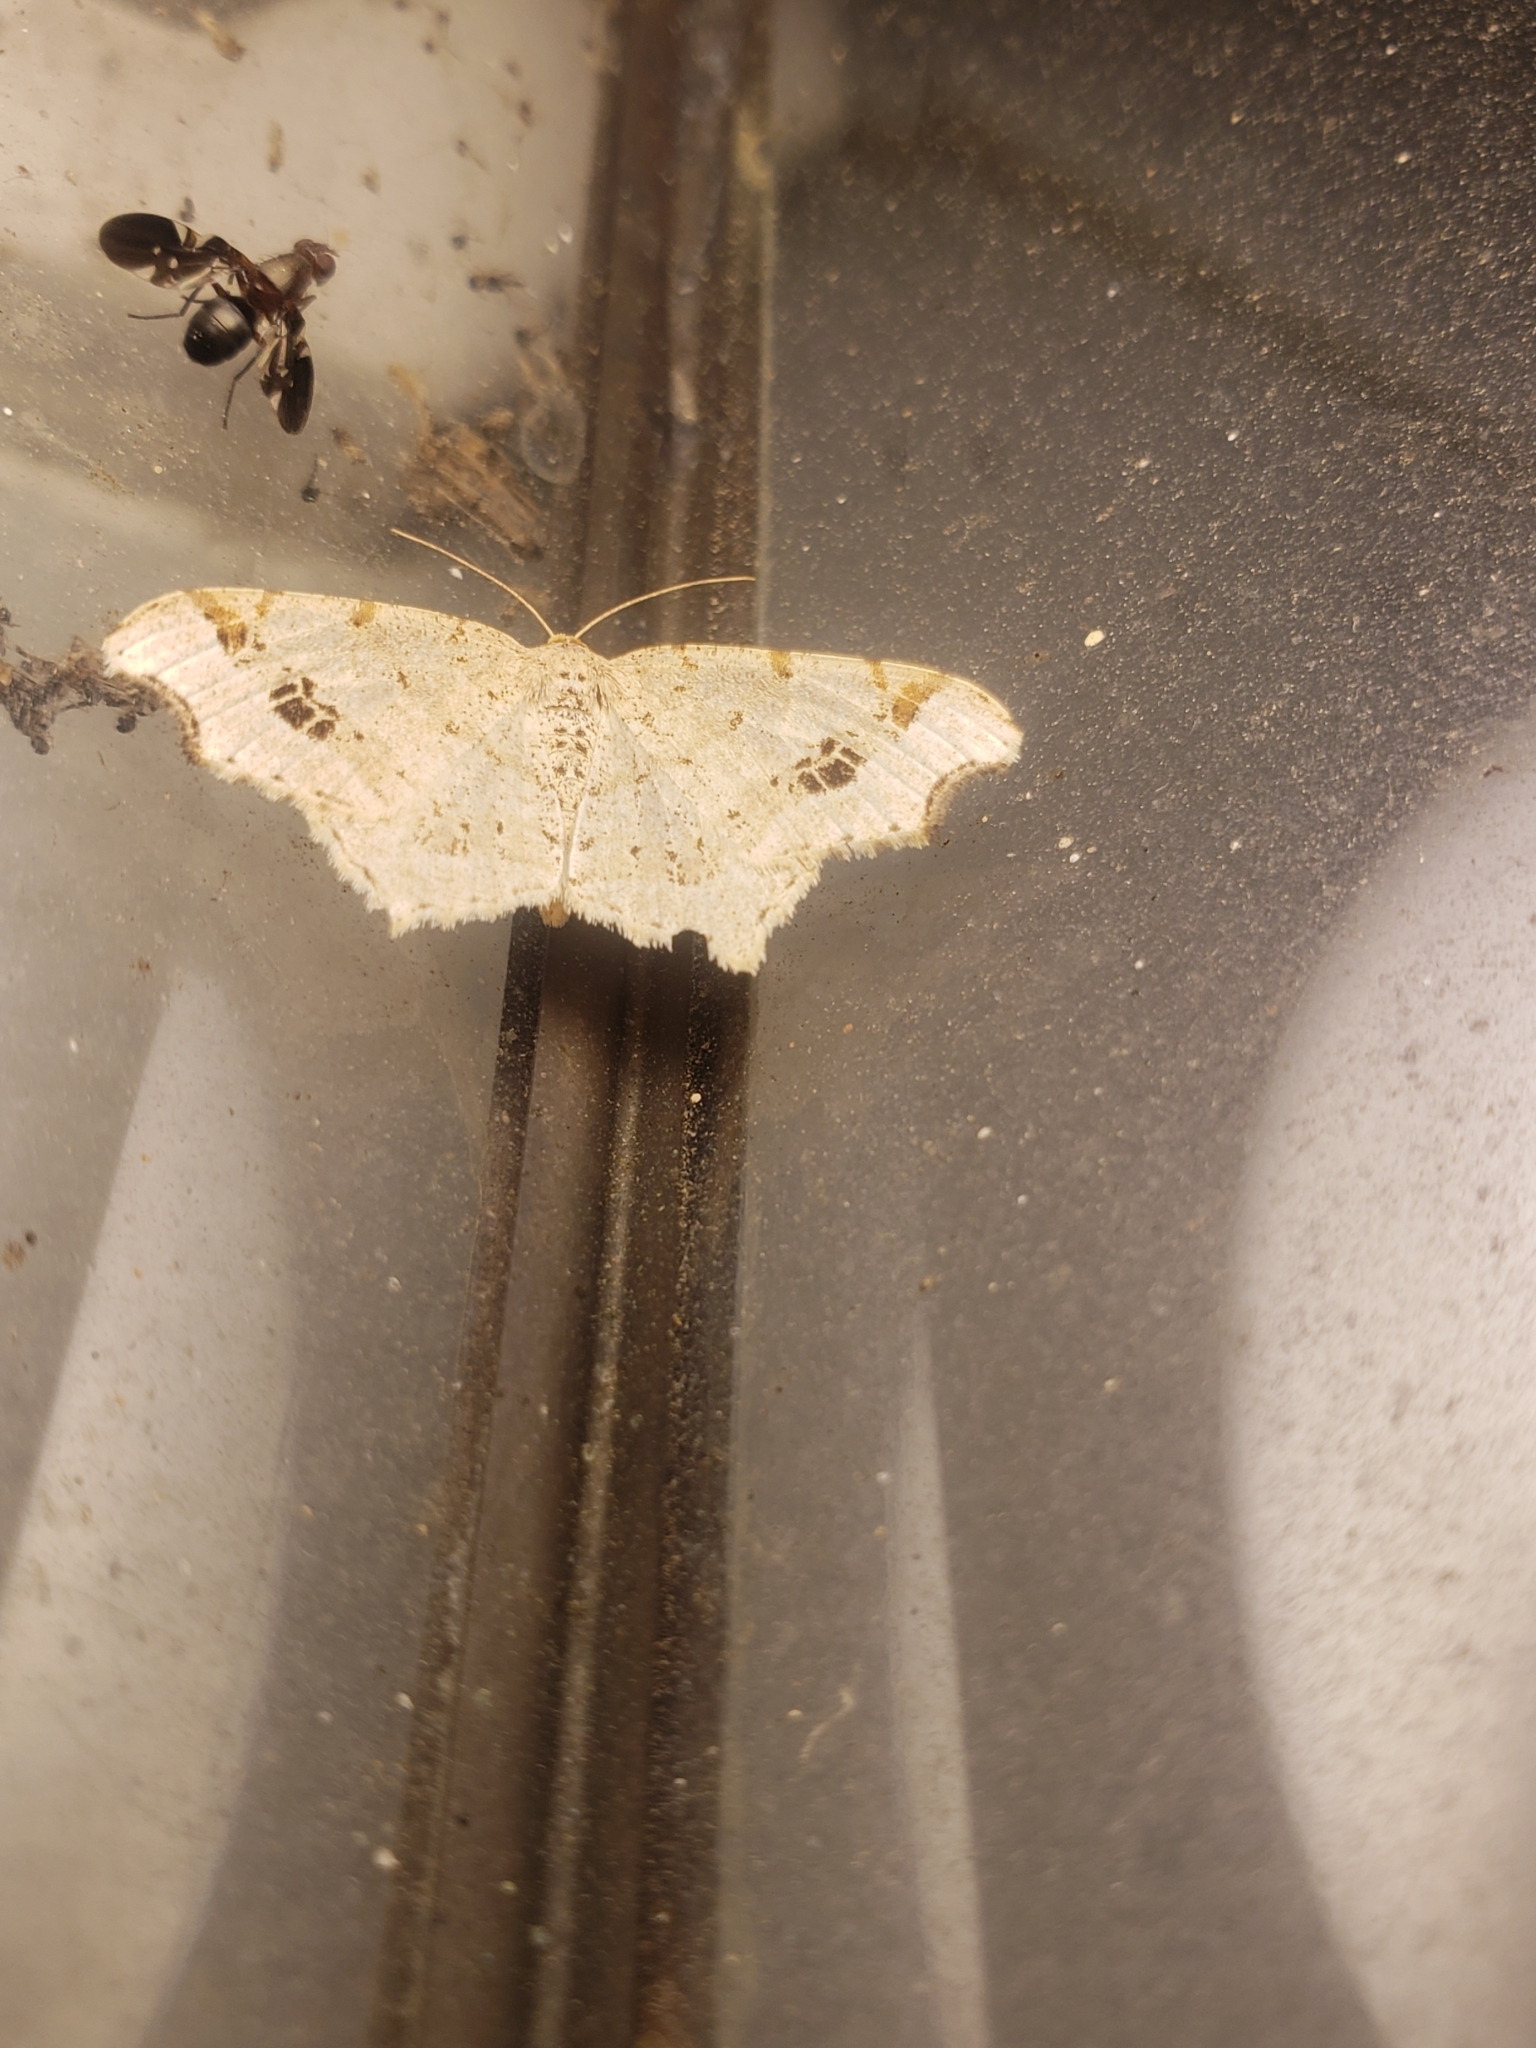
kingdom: Animalia
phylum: Arthropoda
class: Insecta
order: Diptera
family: Ulidiidae
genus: Delphinia
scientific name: Delphinia picta
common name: Common picture-winged fly
